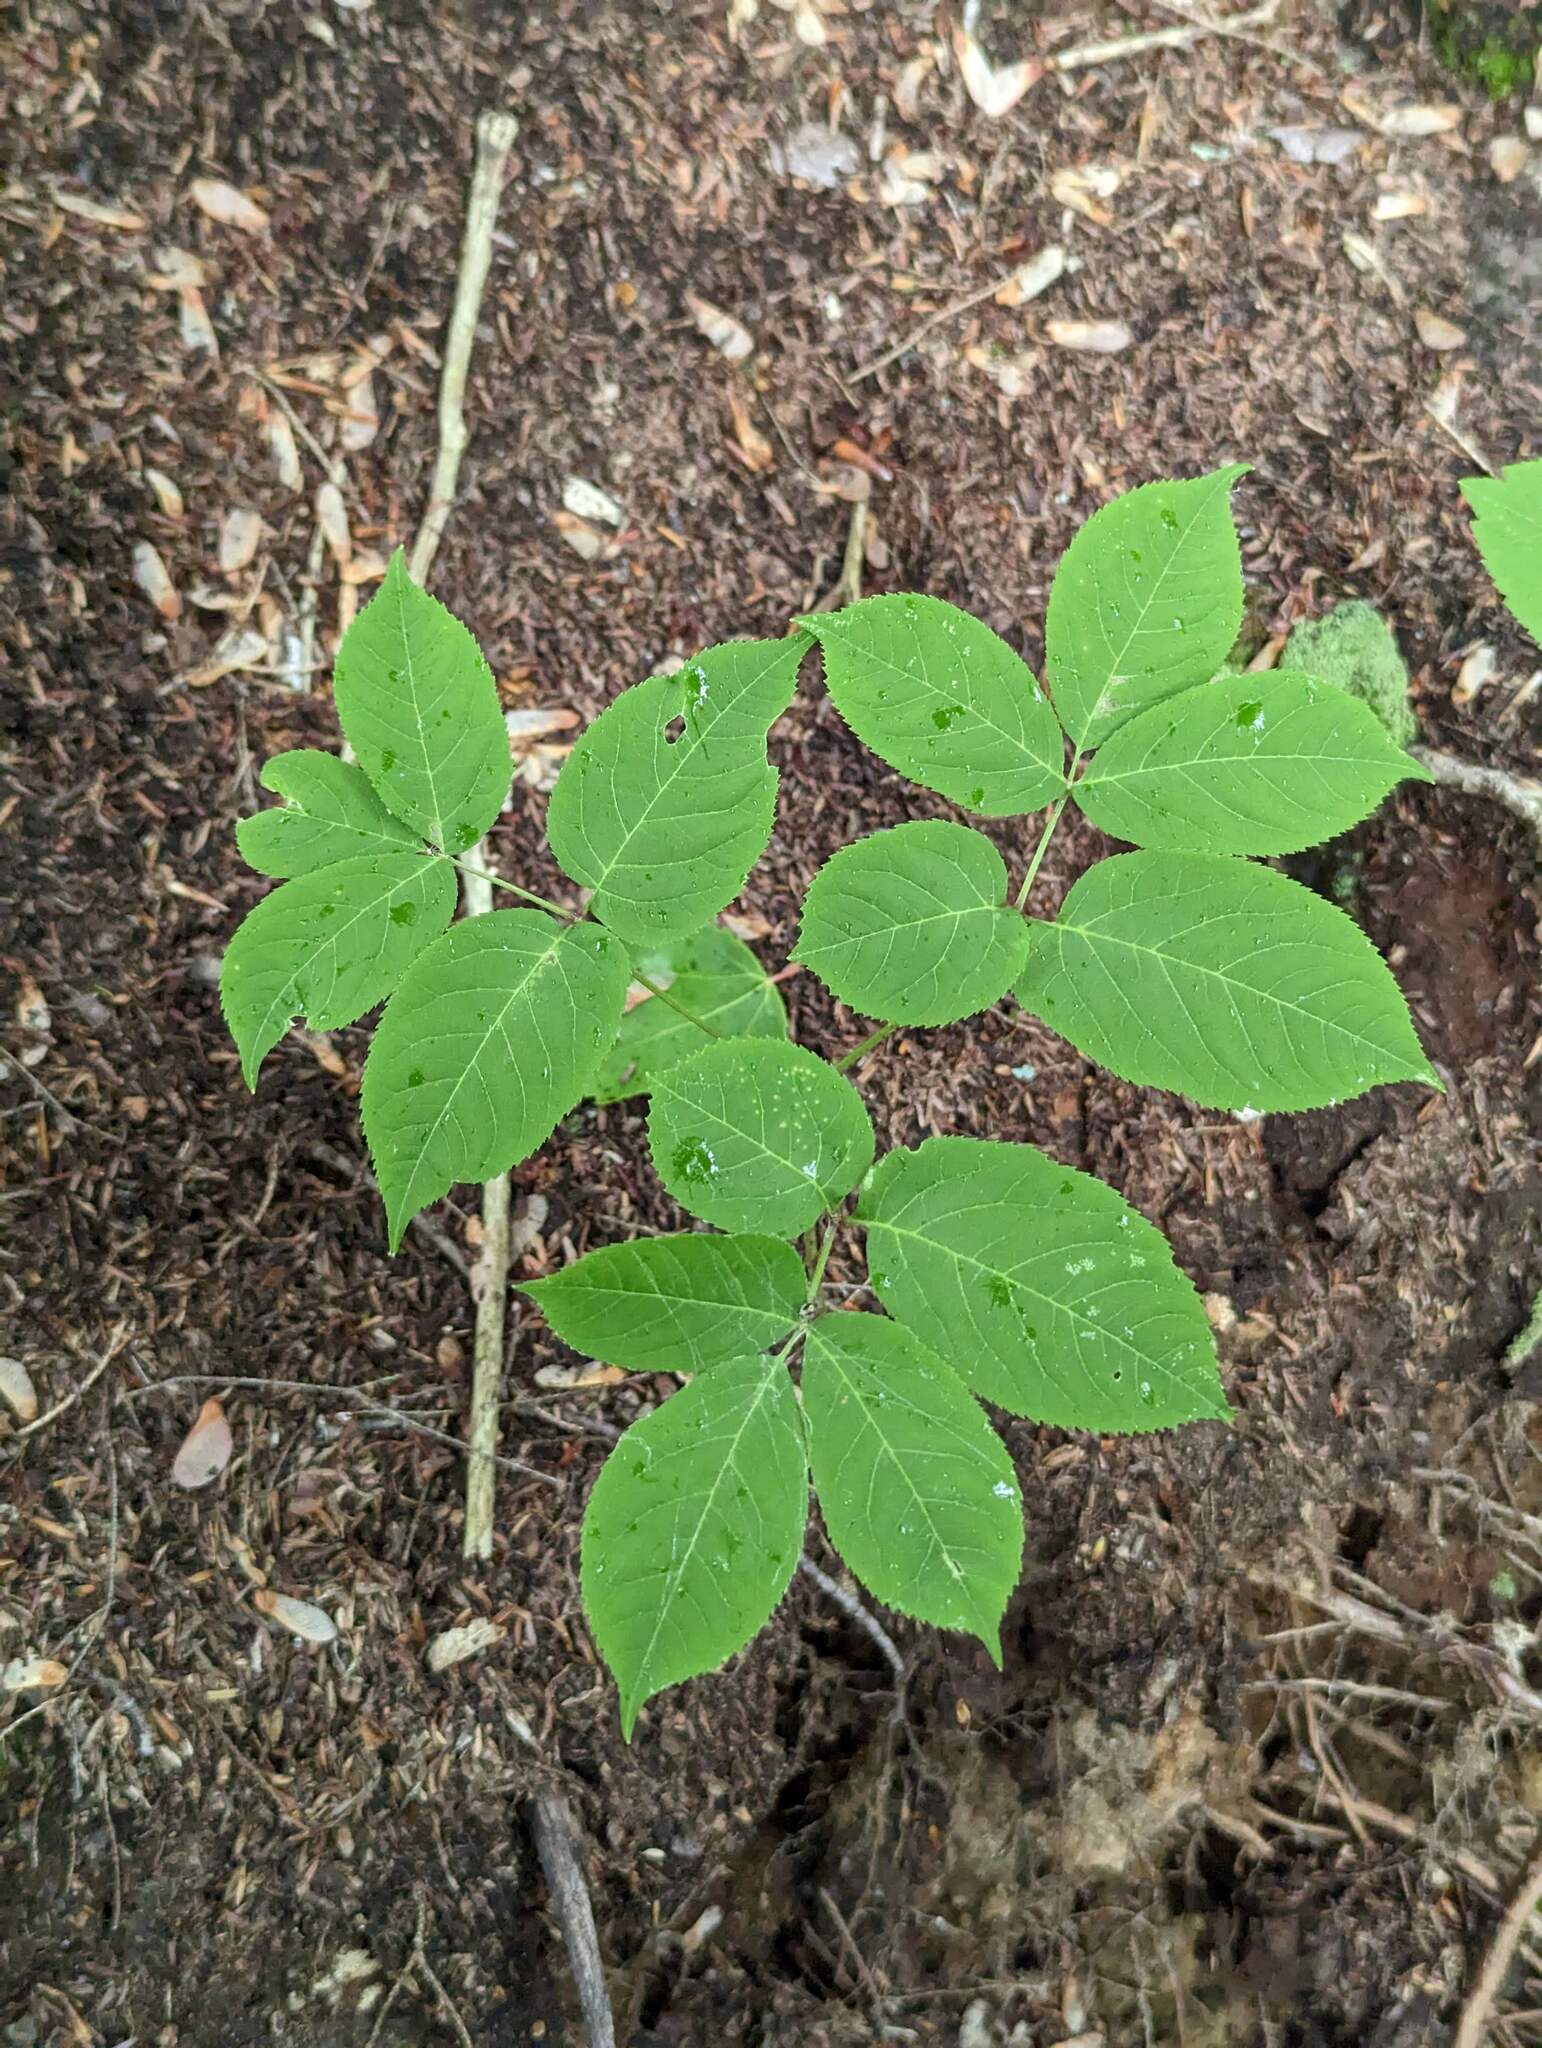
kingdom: Plantae
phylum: Tracheophyta
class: Magnoliopsida
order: Apiales
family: Araliaceae
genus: Aralia
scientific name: Aralia nudicaulis
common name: Wild sarsaparilla
